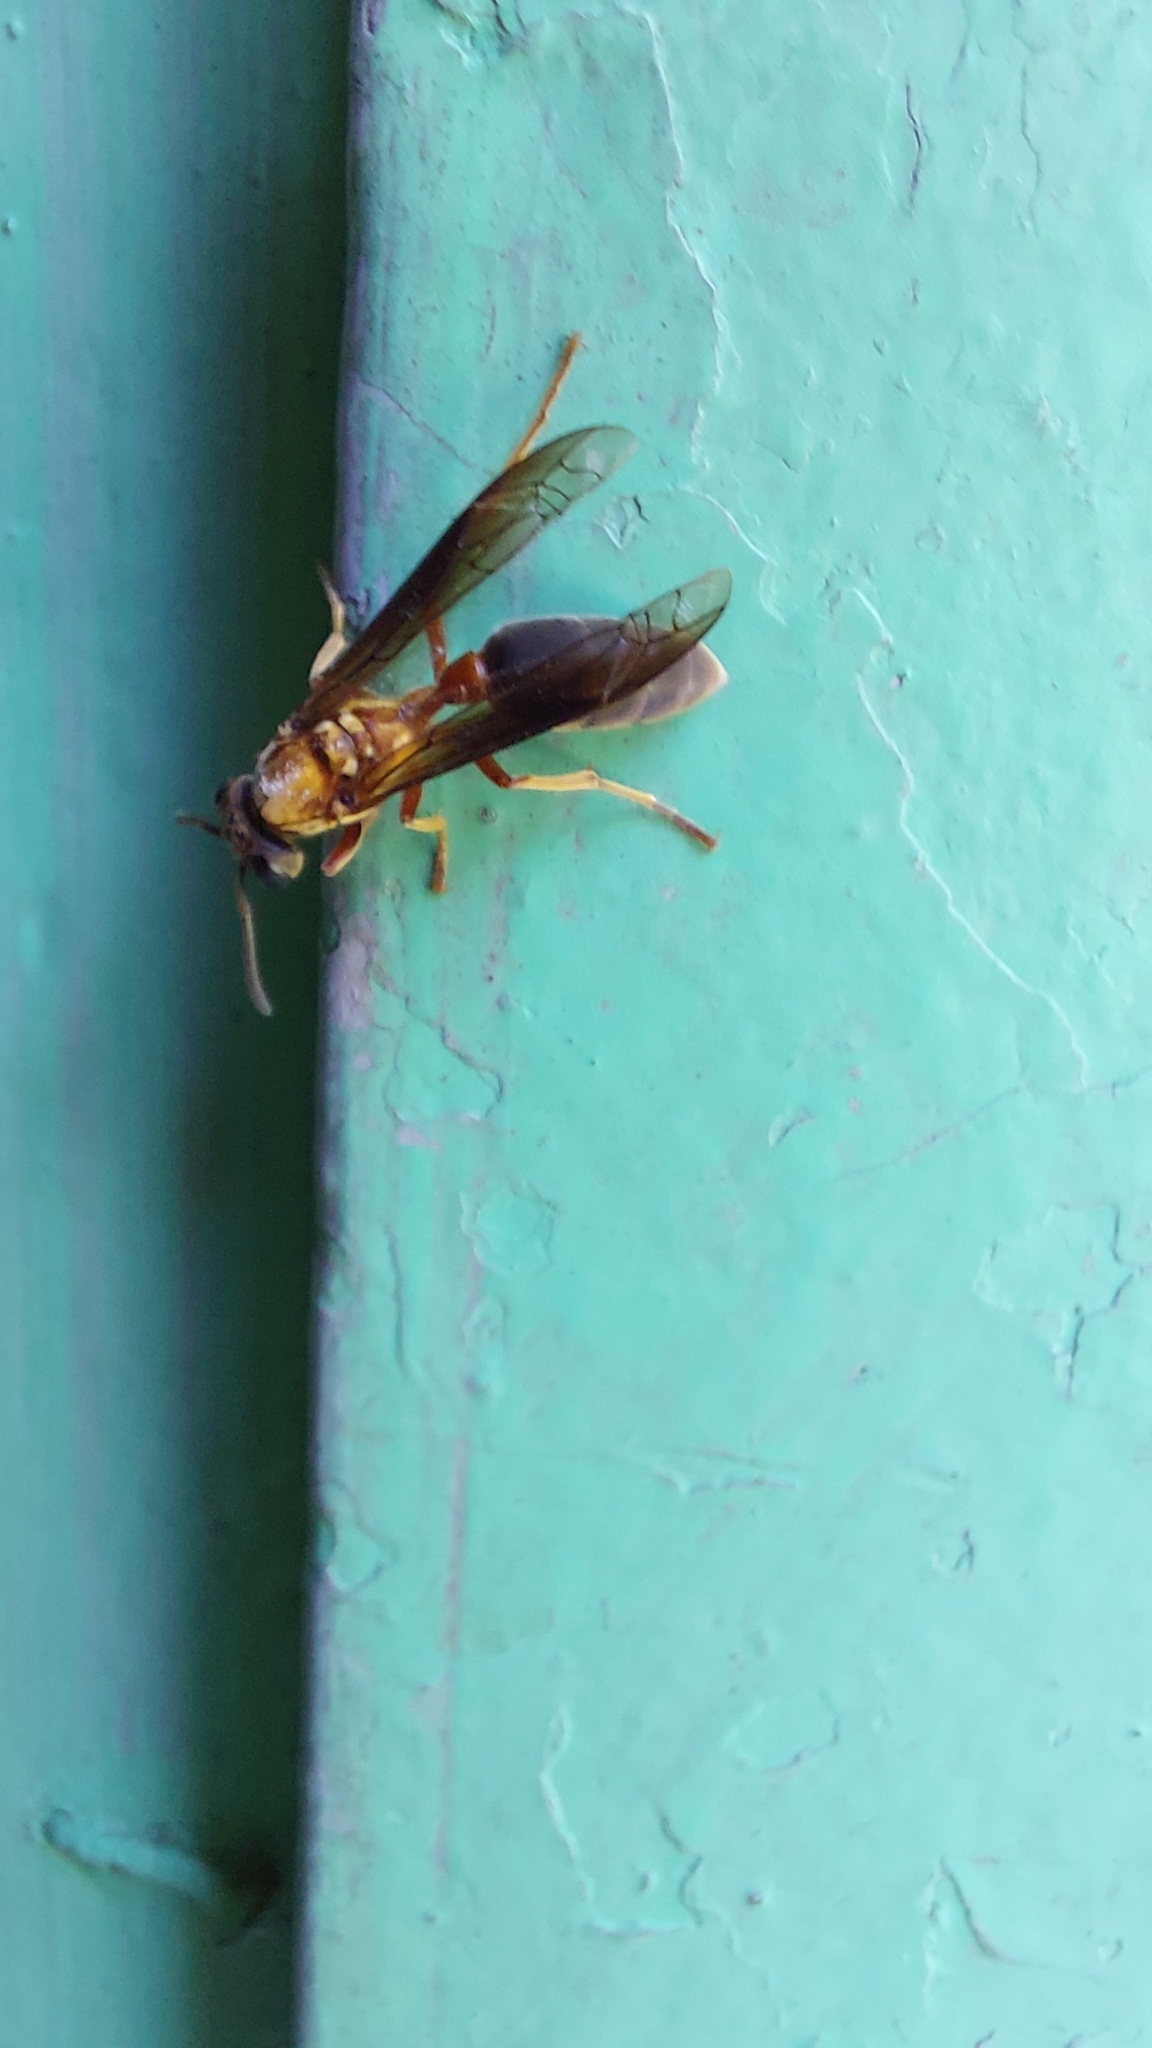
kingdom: Animalia
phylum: Arthropoda
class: Insecta
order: Hymenoptera
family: Eumenidae
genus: Polybia
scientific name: Polybia sericea
